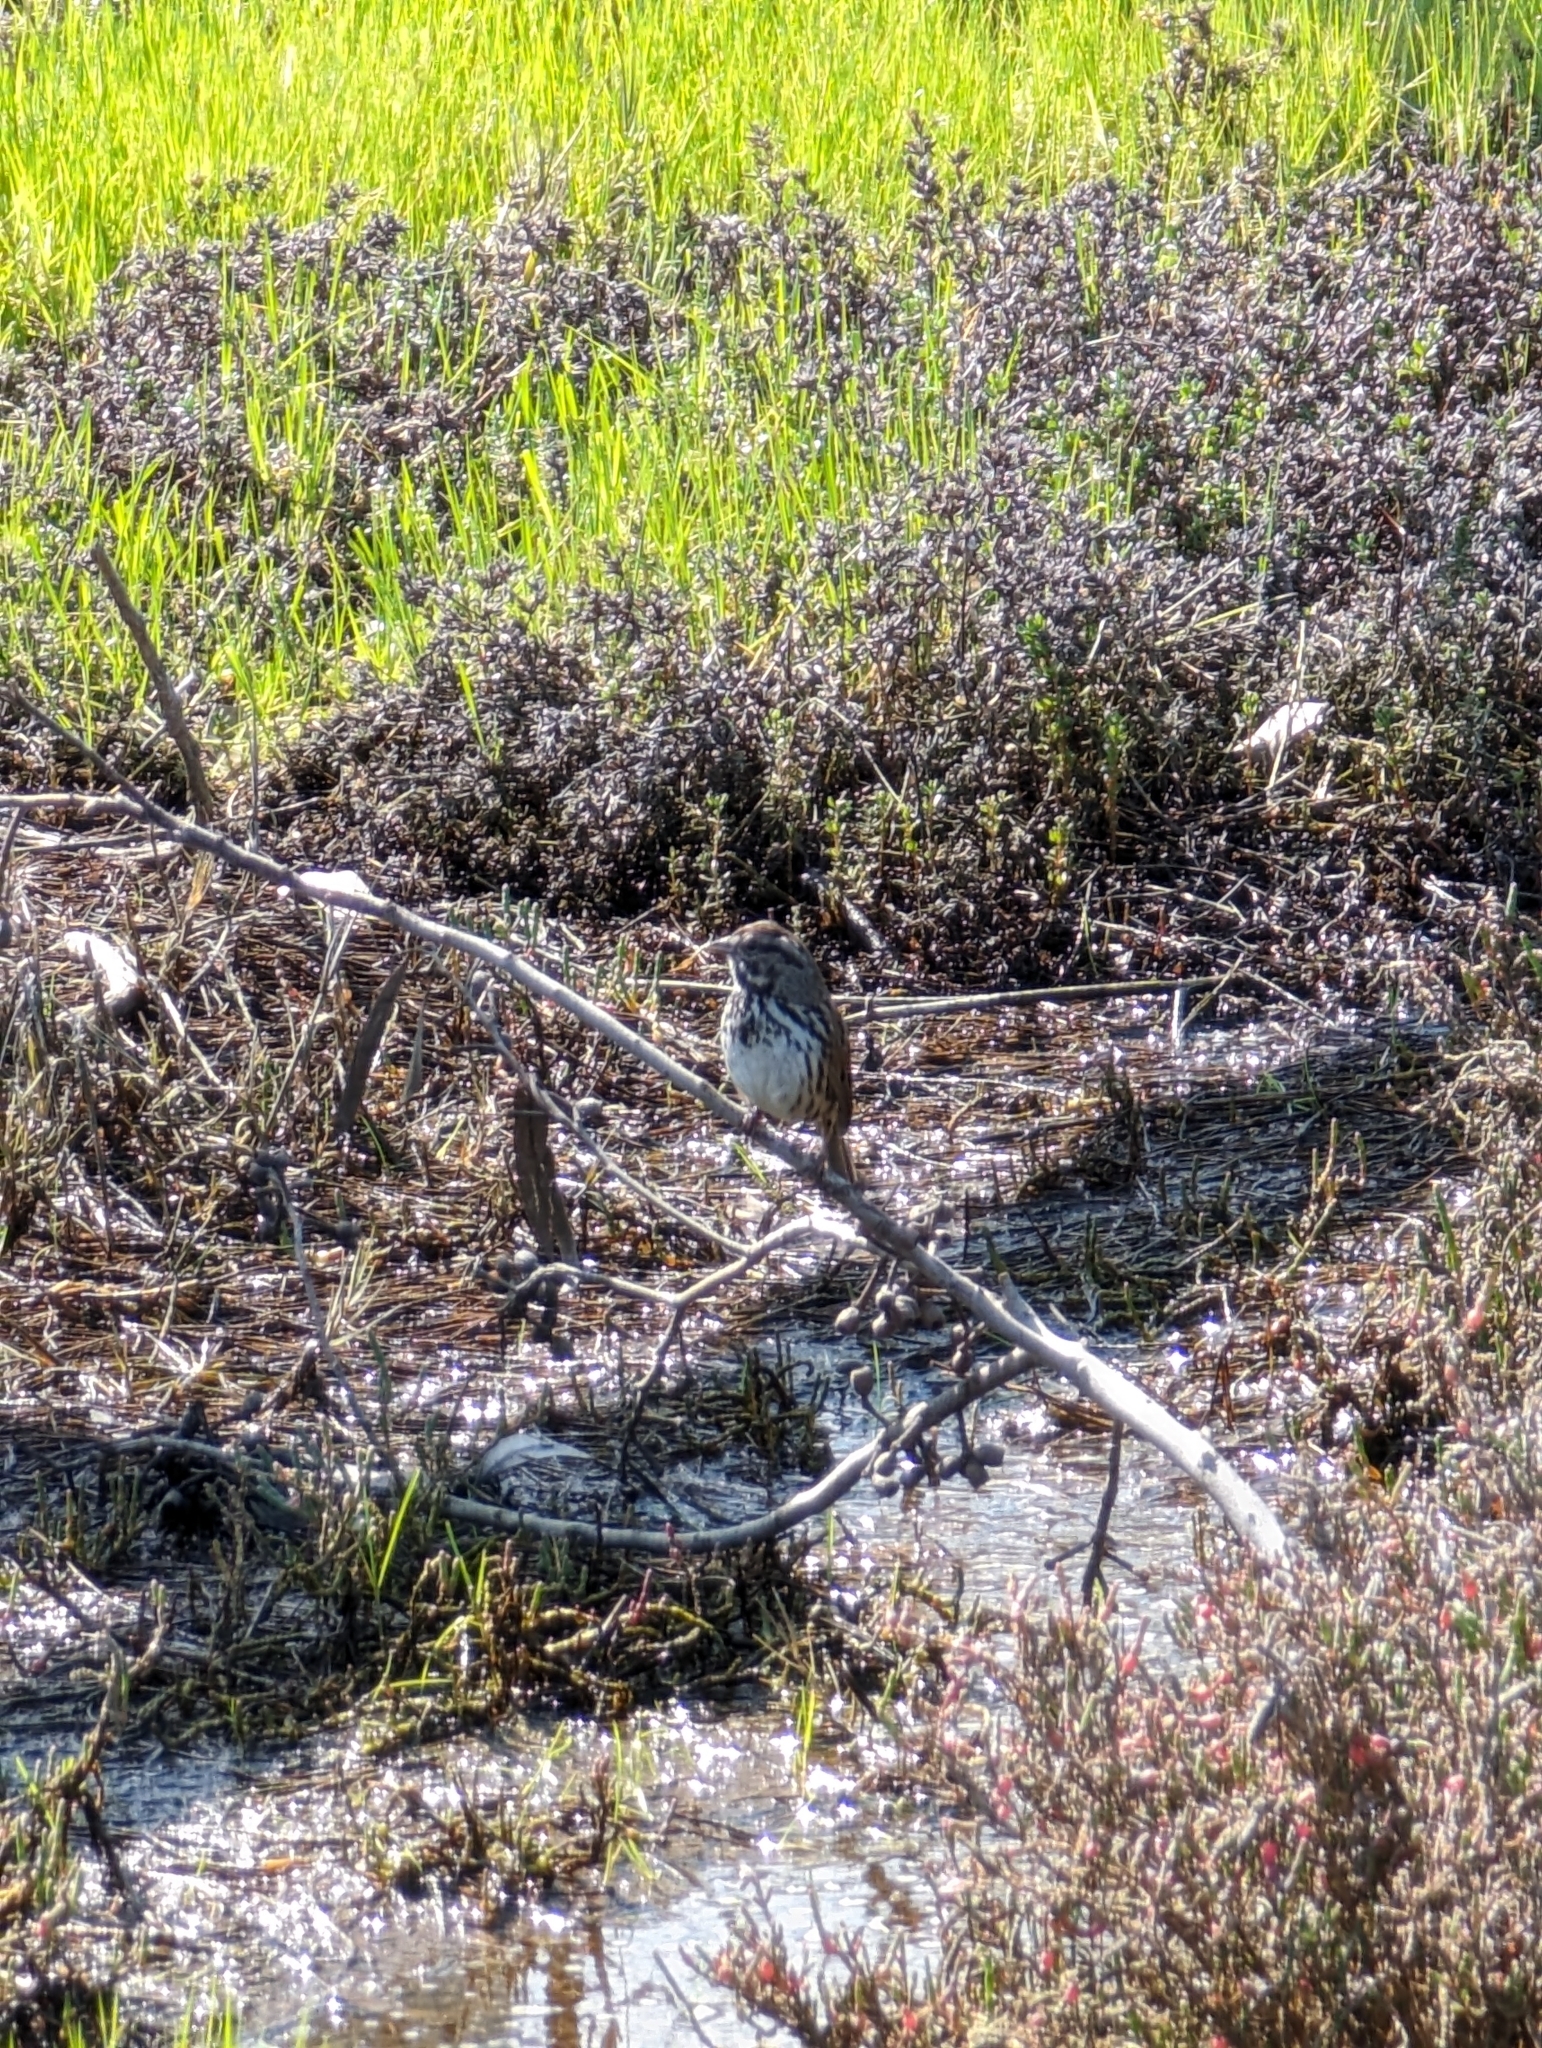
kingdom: Animalia
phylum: Chordata
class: Aves
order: Passeriformes
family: Passerellidae
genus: Melospiza
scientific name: Melospiza melodia
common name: Song sparrow
